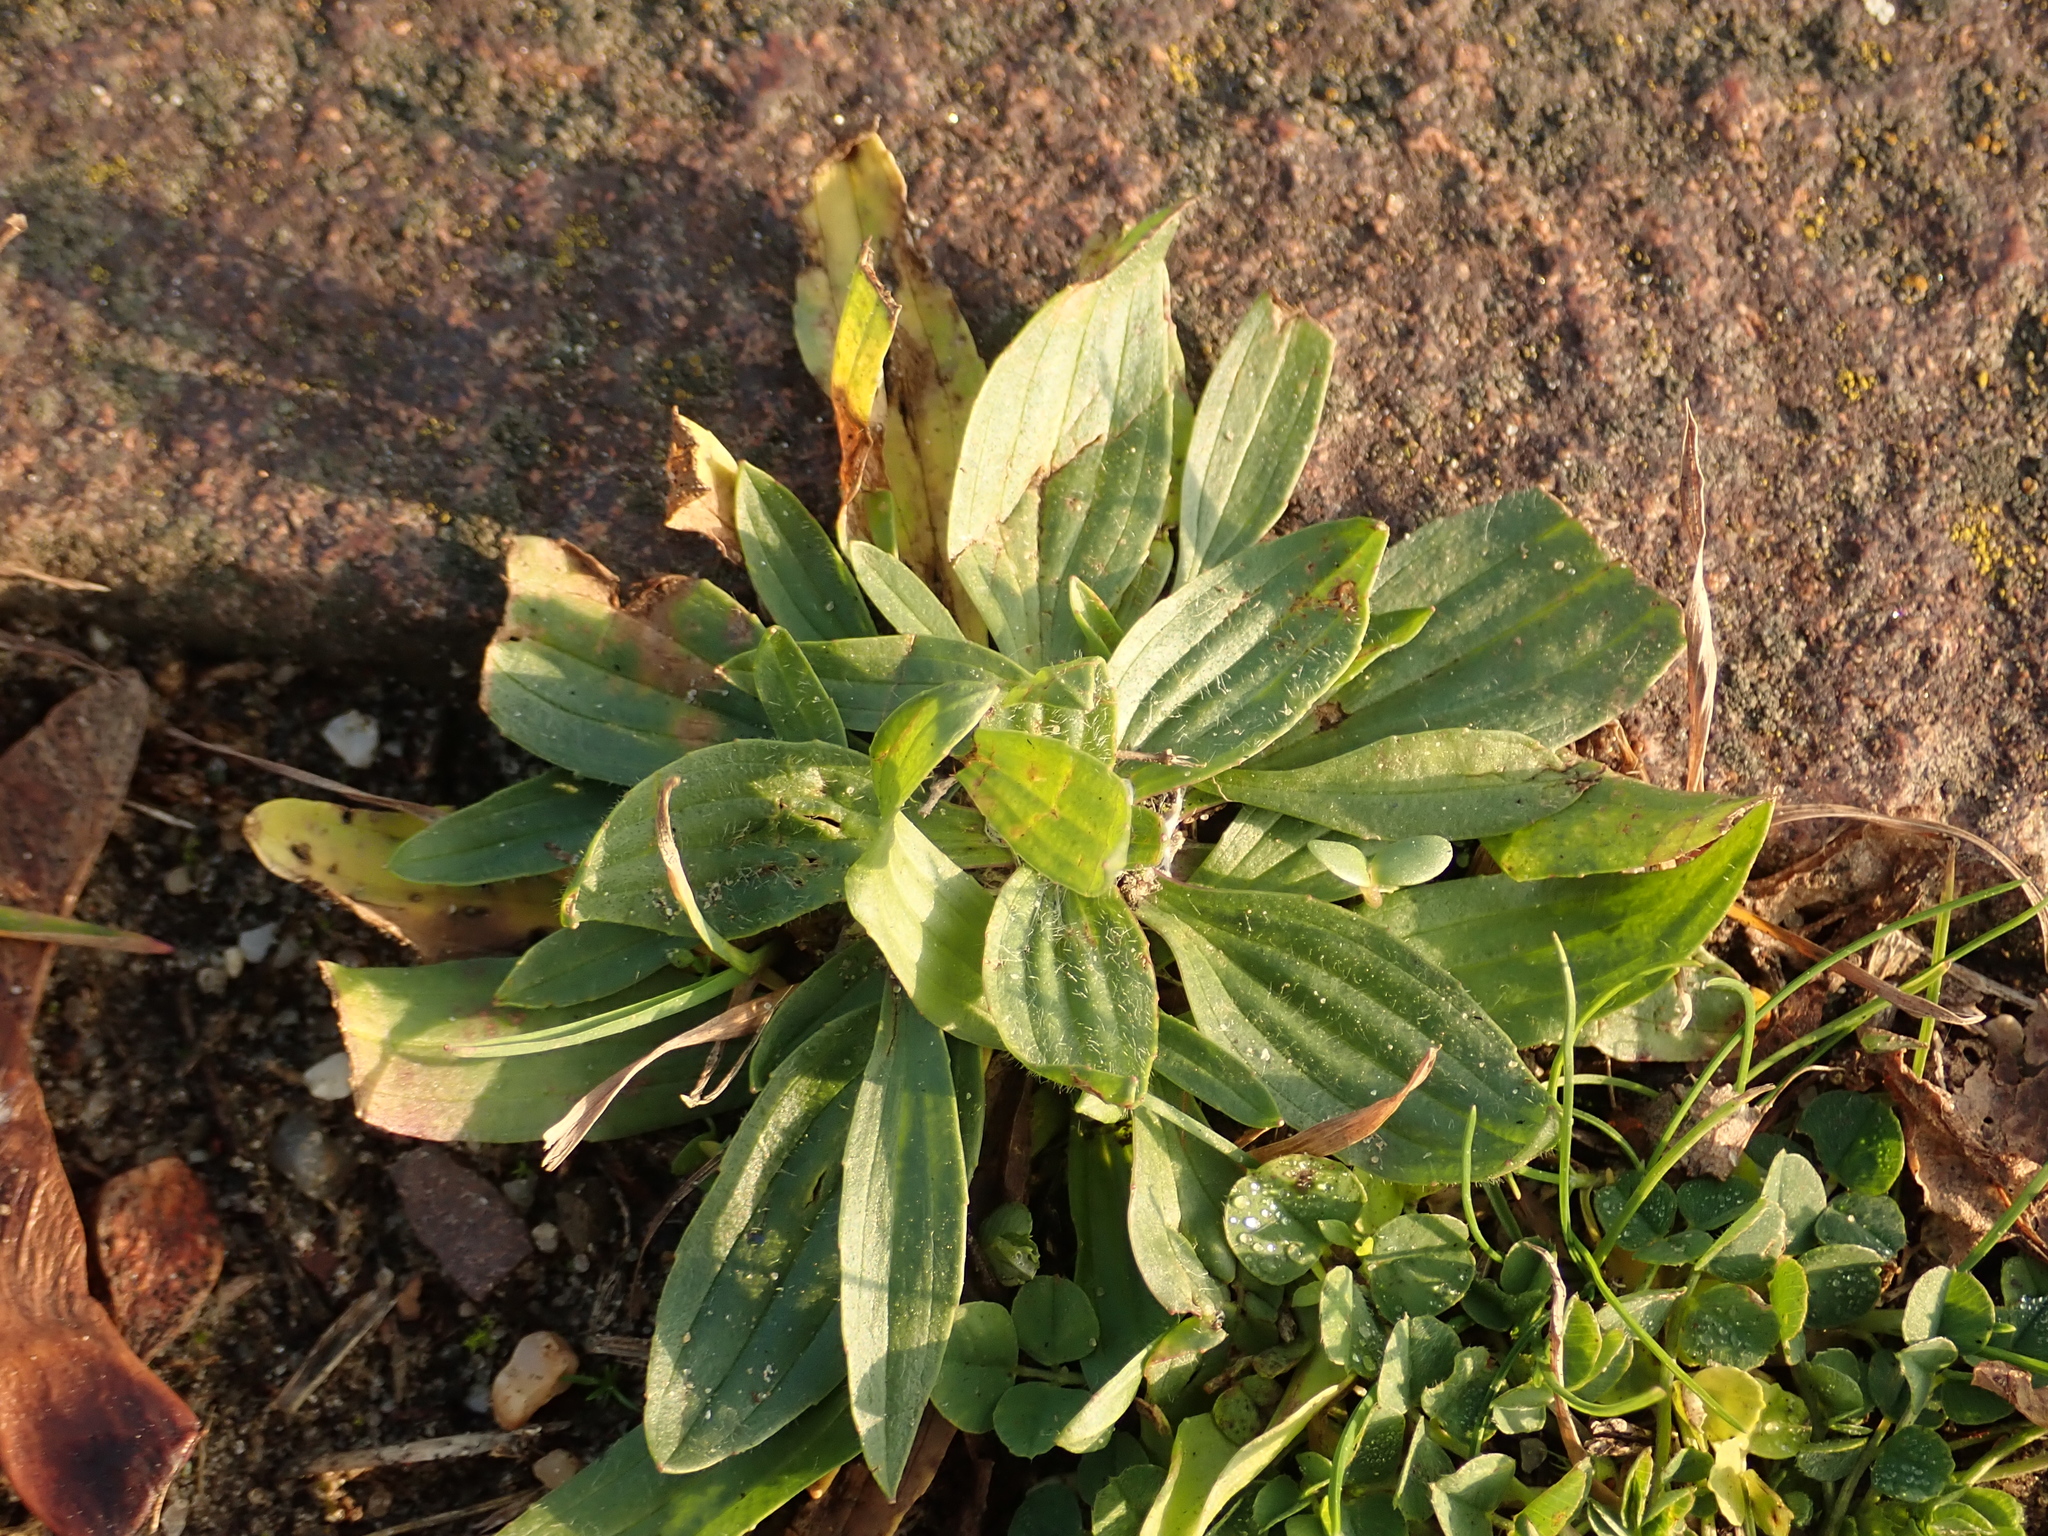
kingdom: Plantae
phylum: Tracheophyta
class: Magnoliopsida
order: Lamiales
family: Plantaginaceae
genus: Plantago
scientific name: Plantago lanceolata
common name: Ribwort plantain
